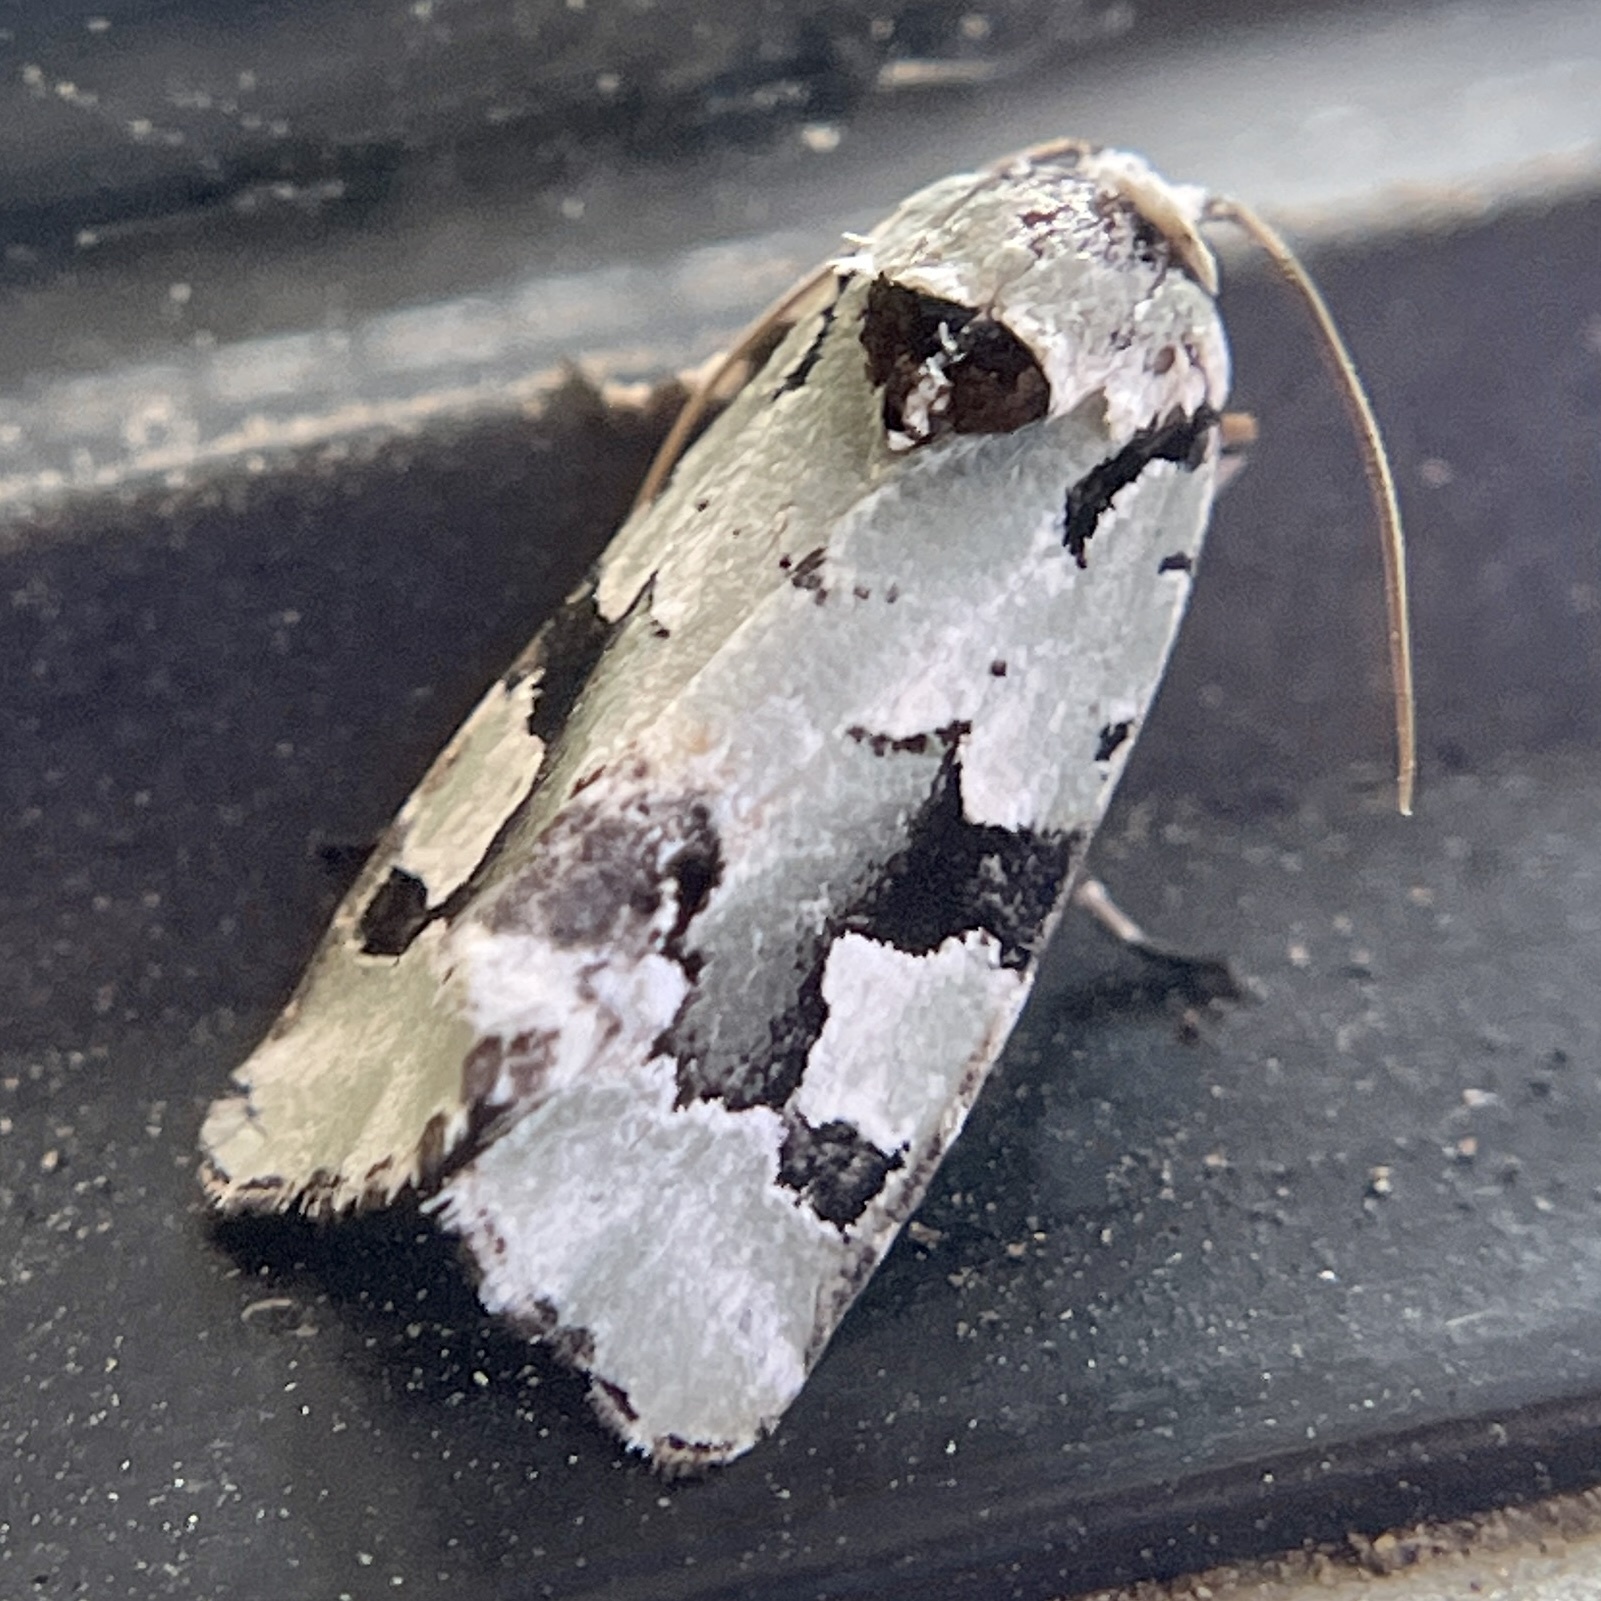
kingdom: Animalia
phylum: Arthropoda
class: Insecta
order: Lepidoptera
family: Noctuidae
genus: Emarginea
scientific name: Emarginea percara
